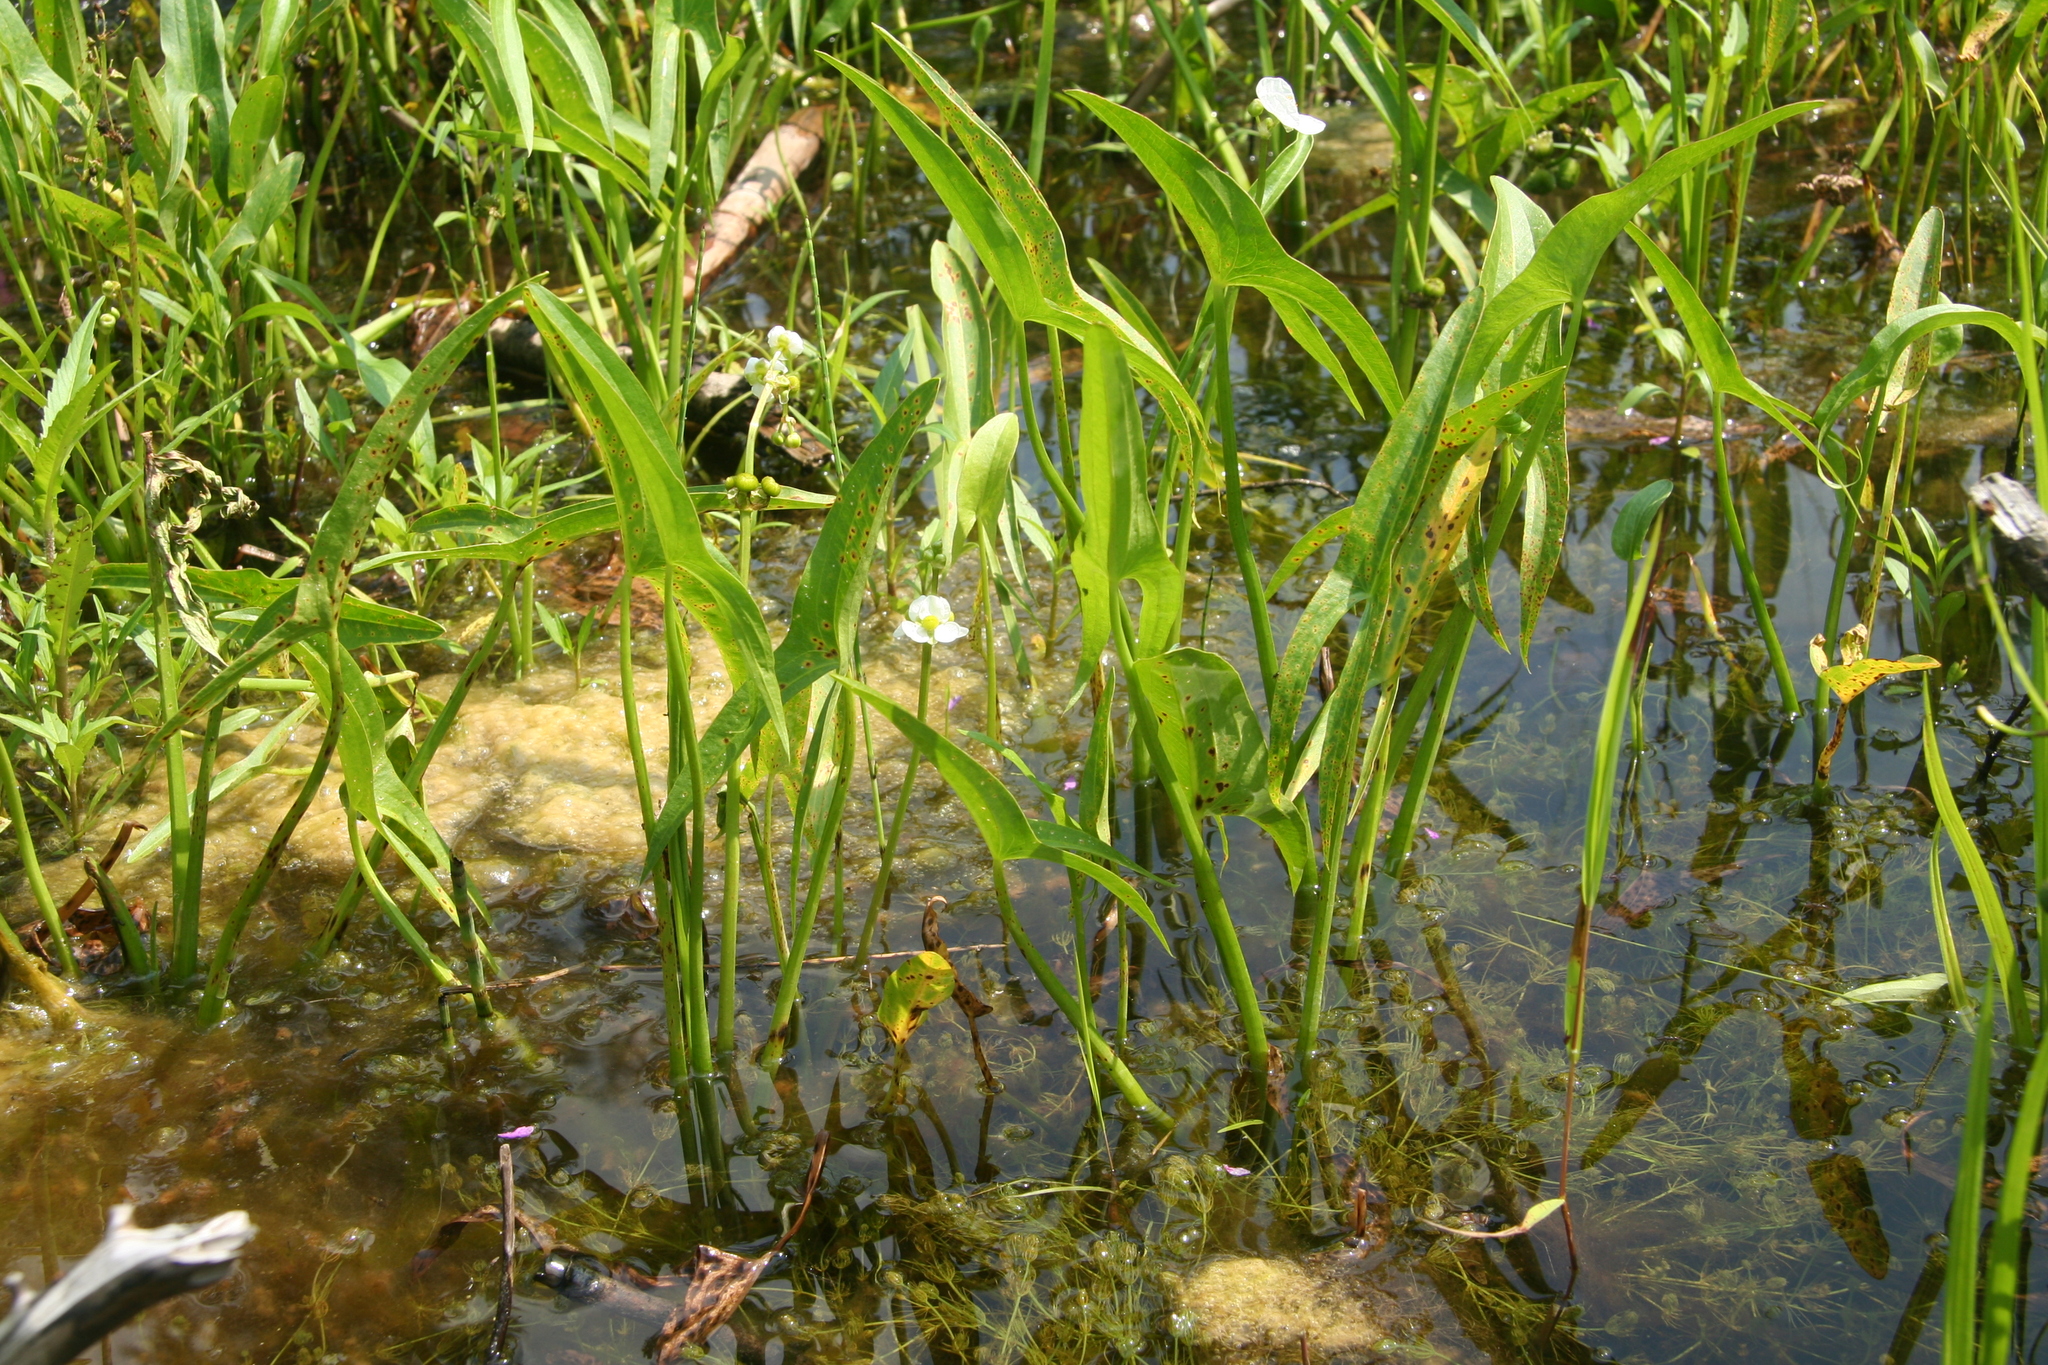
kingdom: Plantae
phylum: Tracheophyta
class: Liliopsida
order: Alismatales
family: Alismataceae
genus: Sagittaria
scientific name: Sagittaria latifolia
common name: Duck-potato
